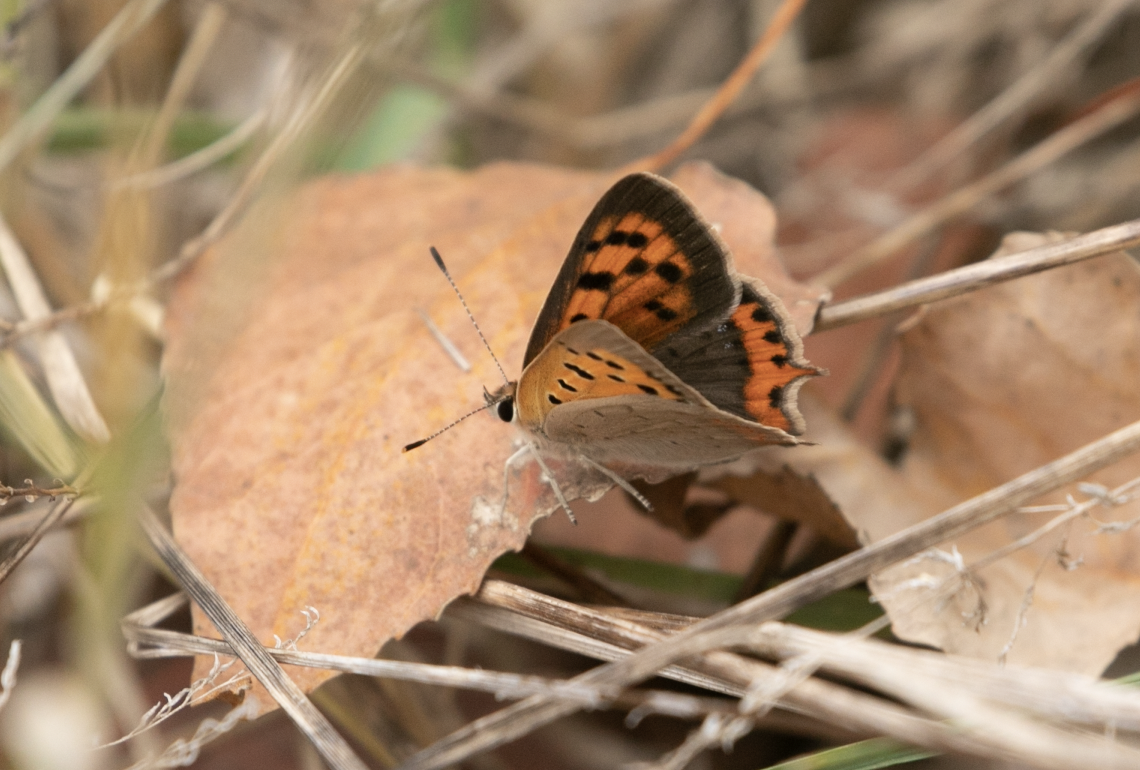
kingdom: Animalia
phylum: Arthropoda
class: Insecta
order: Lepidoptera
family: Lycaenidae
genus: Lycaena
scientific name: Lycaena phlaeas
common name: Small copper
